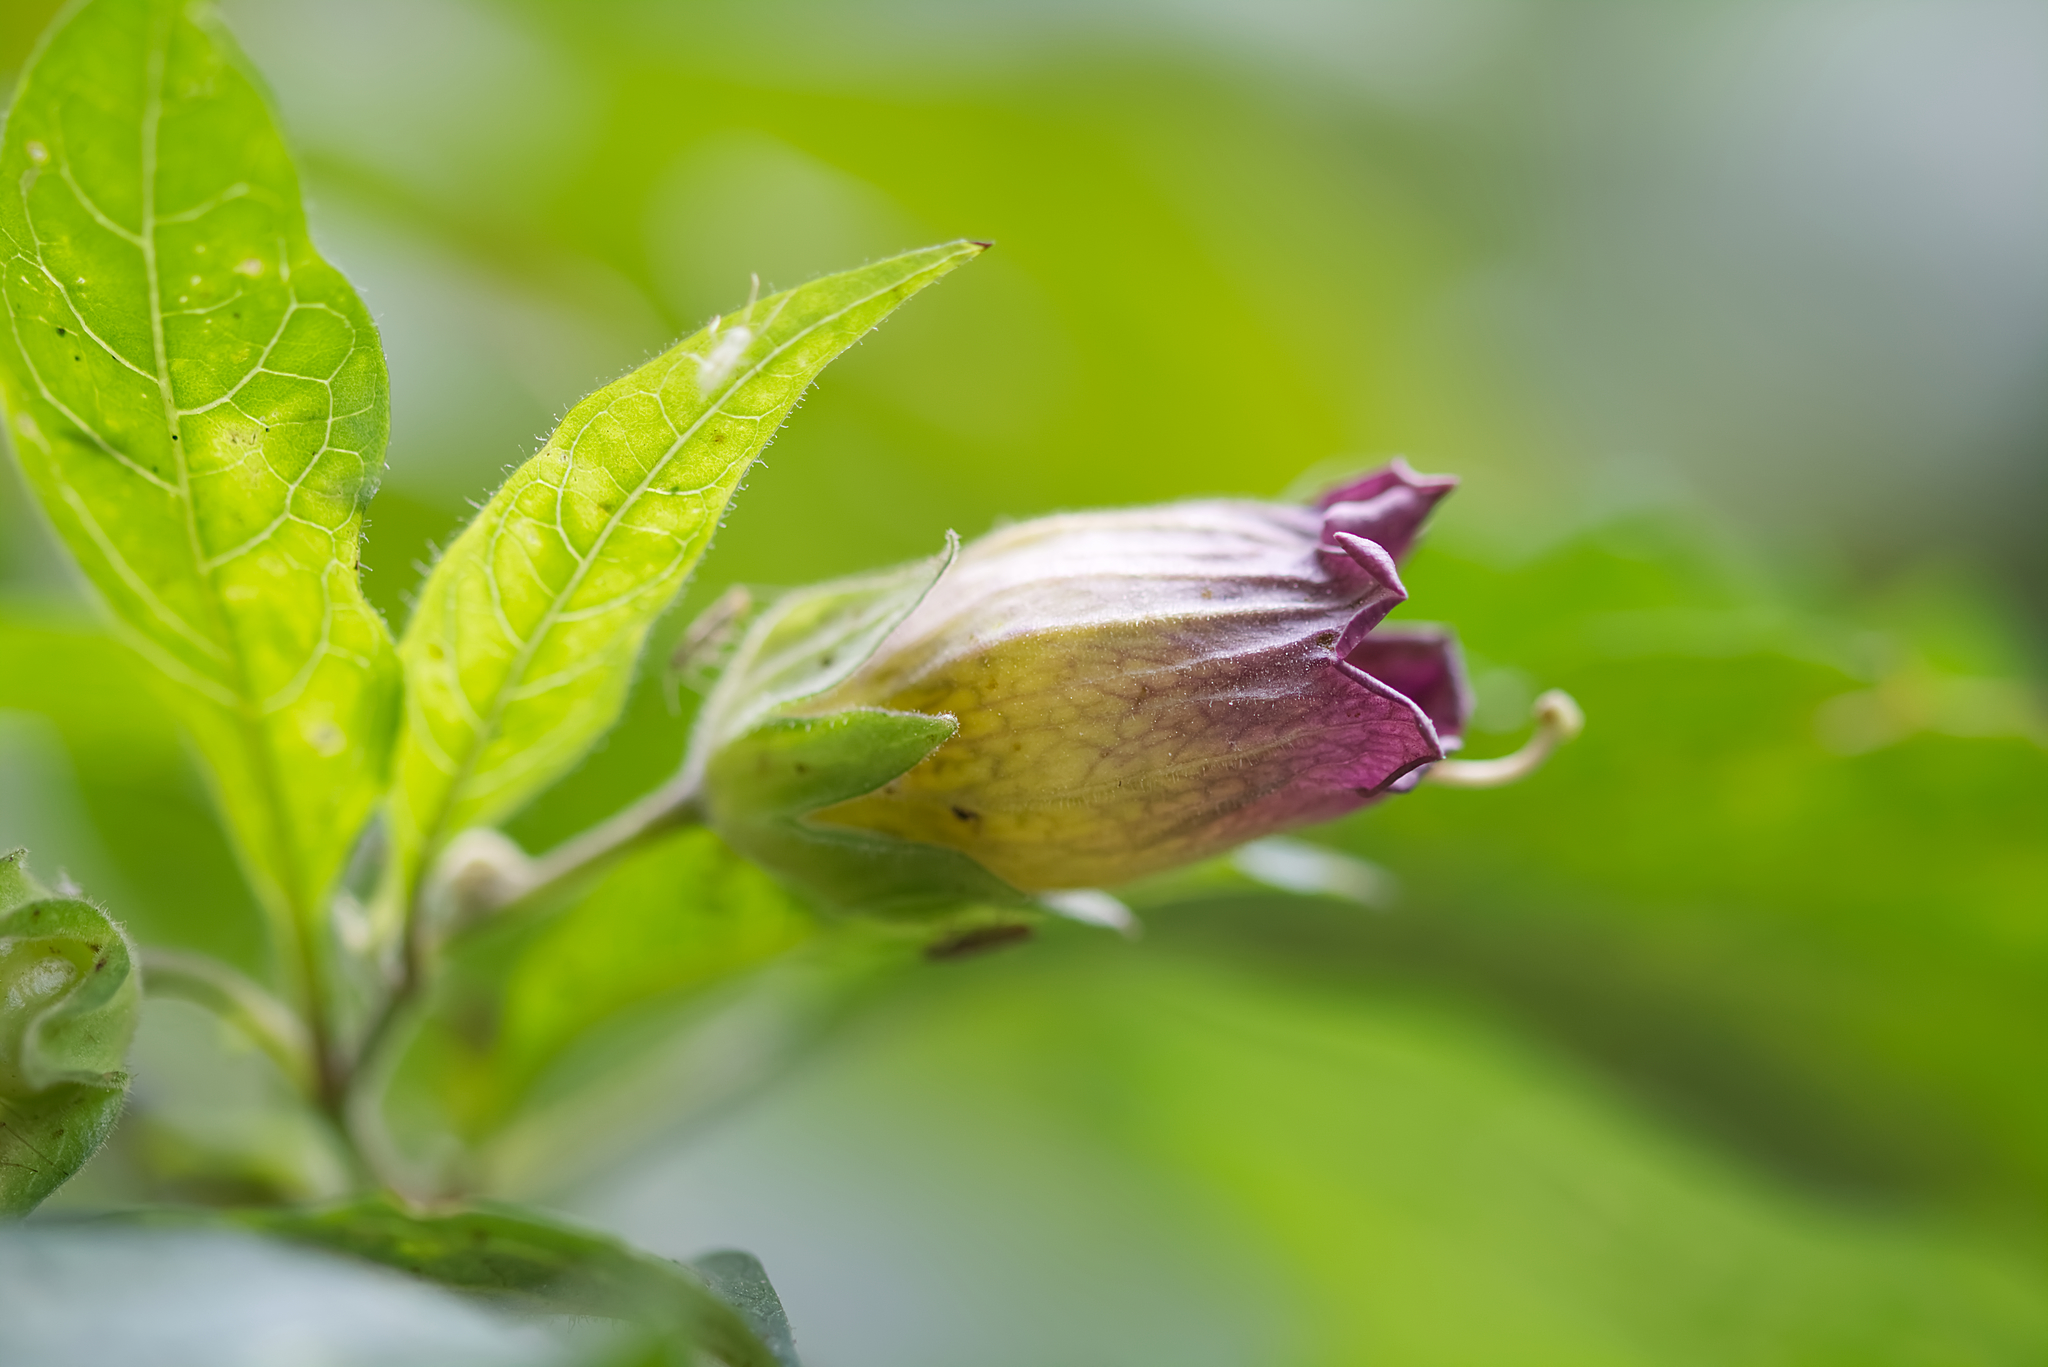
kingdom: Plantae
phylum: Tracheophyta
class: Magnoliopsida
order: Solanales
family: Solanaceae
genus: Atropa
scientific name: Atropa belladonna
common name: Deadly nightshade
